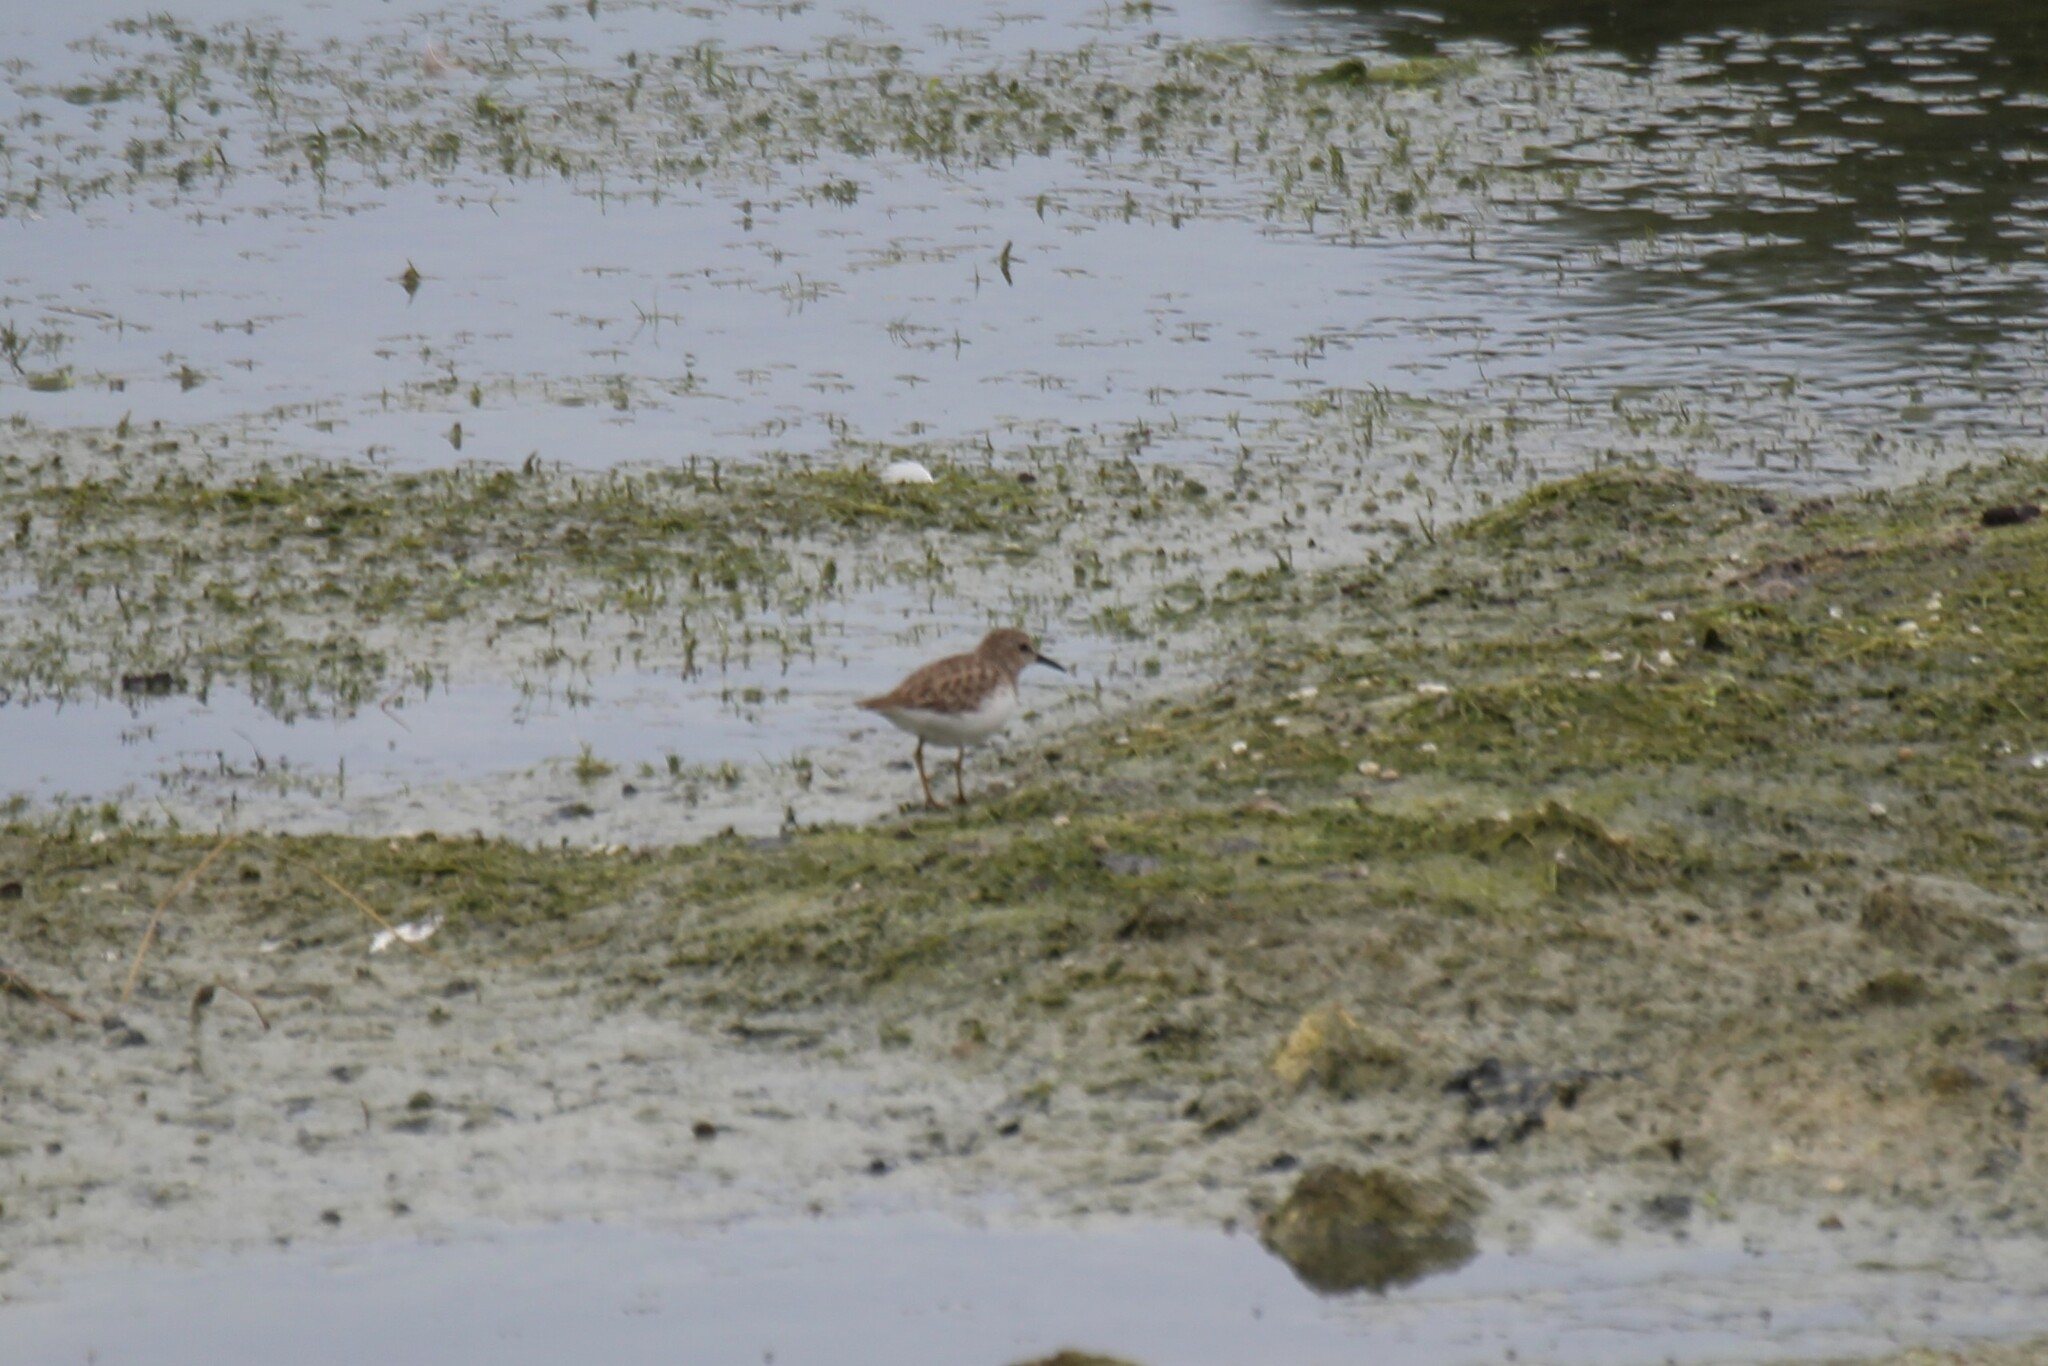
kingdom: Animalia
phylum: Chordata
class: Aves
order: Charadriiformes
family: Scolopacidae
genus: Calidris
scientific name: Calidris minutilla
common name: Least sandpiper
